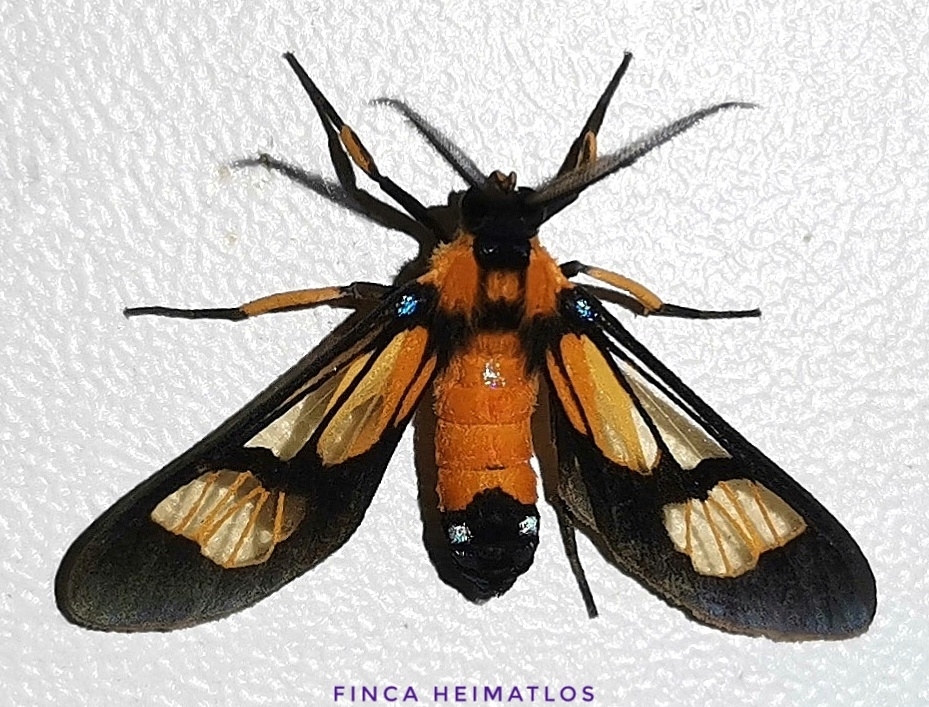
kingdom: Animalia
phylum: Arthropoda
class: Insecta
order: Lepidoptera
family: Erebidae
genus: Leucotmemis
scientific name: Leucotmemis tenthredoides
